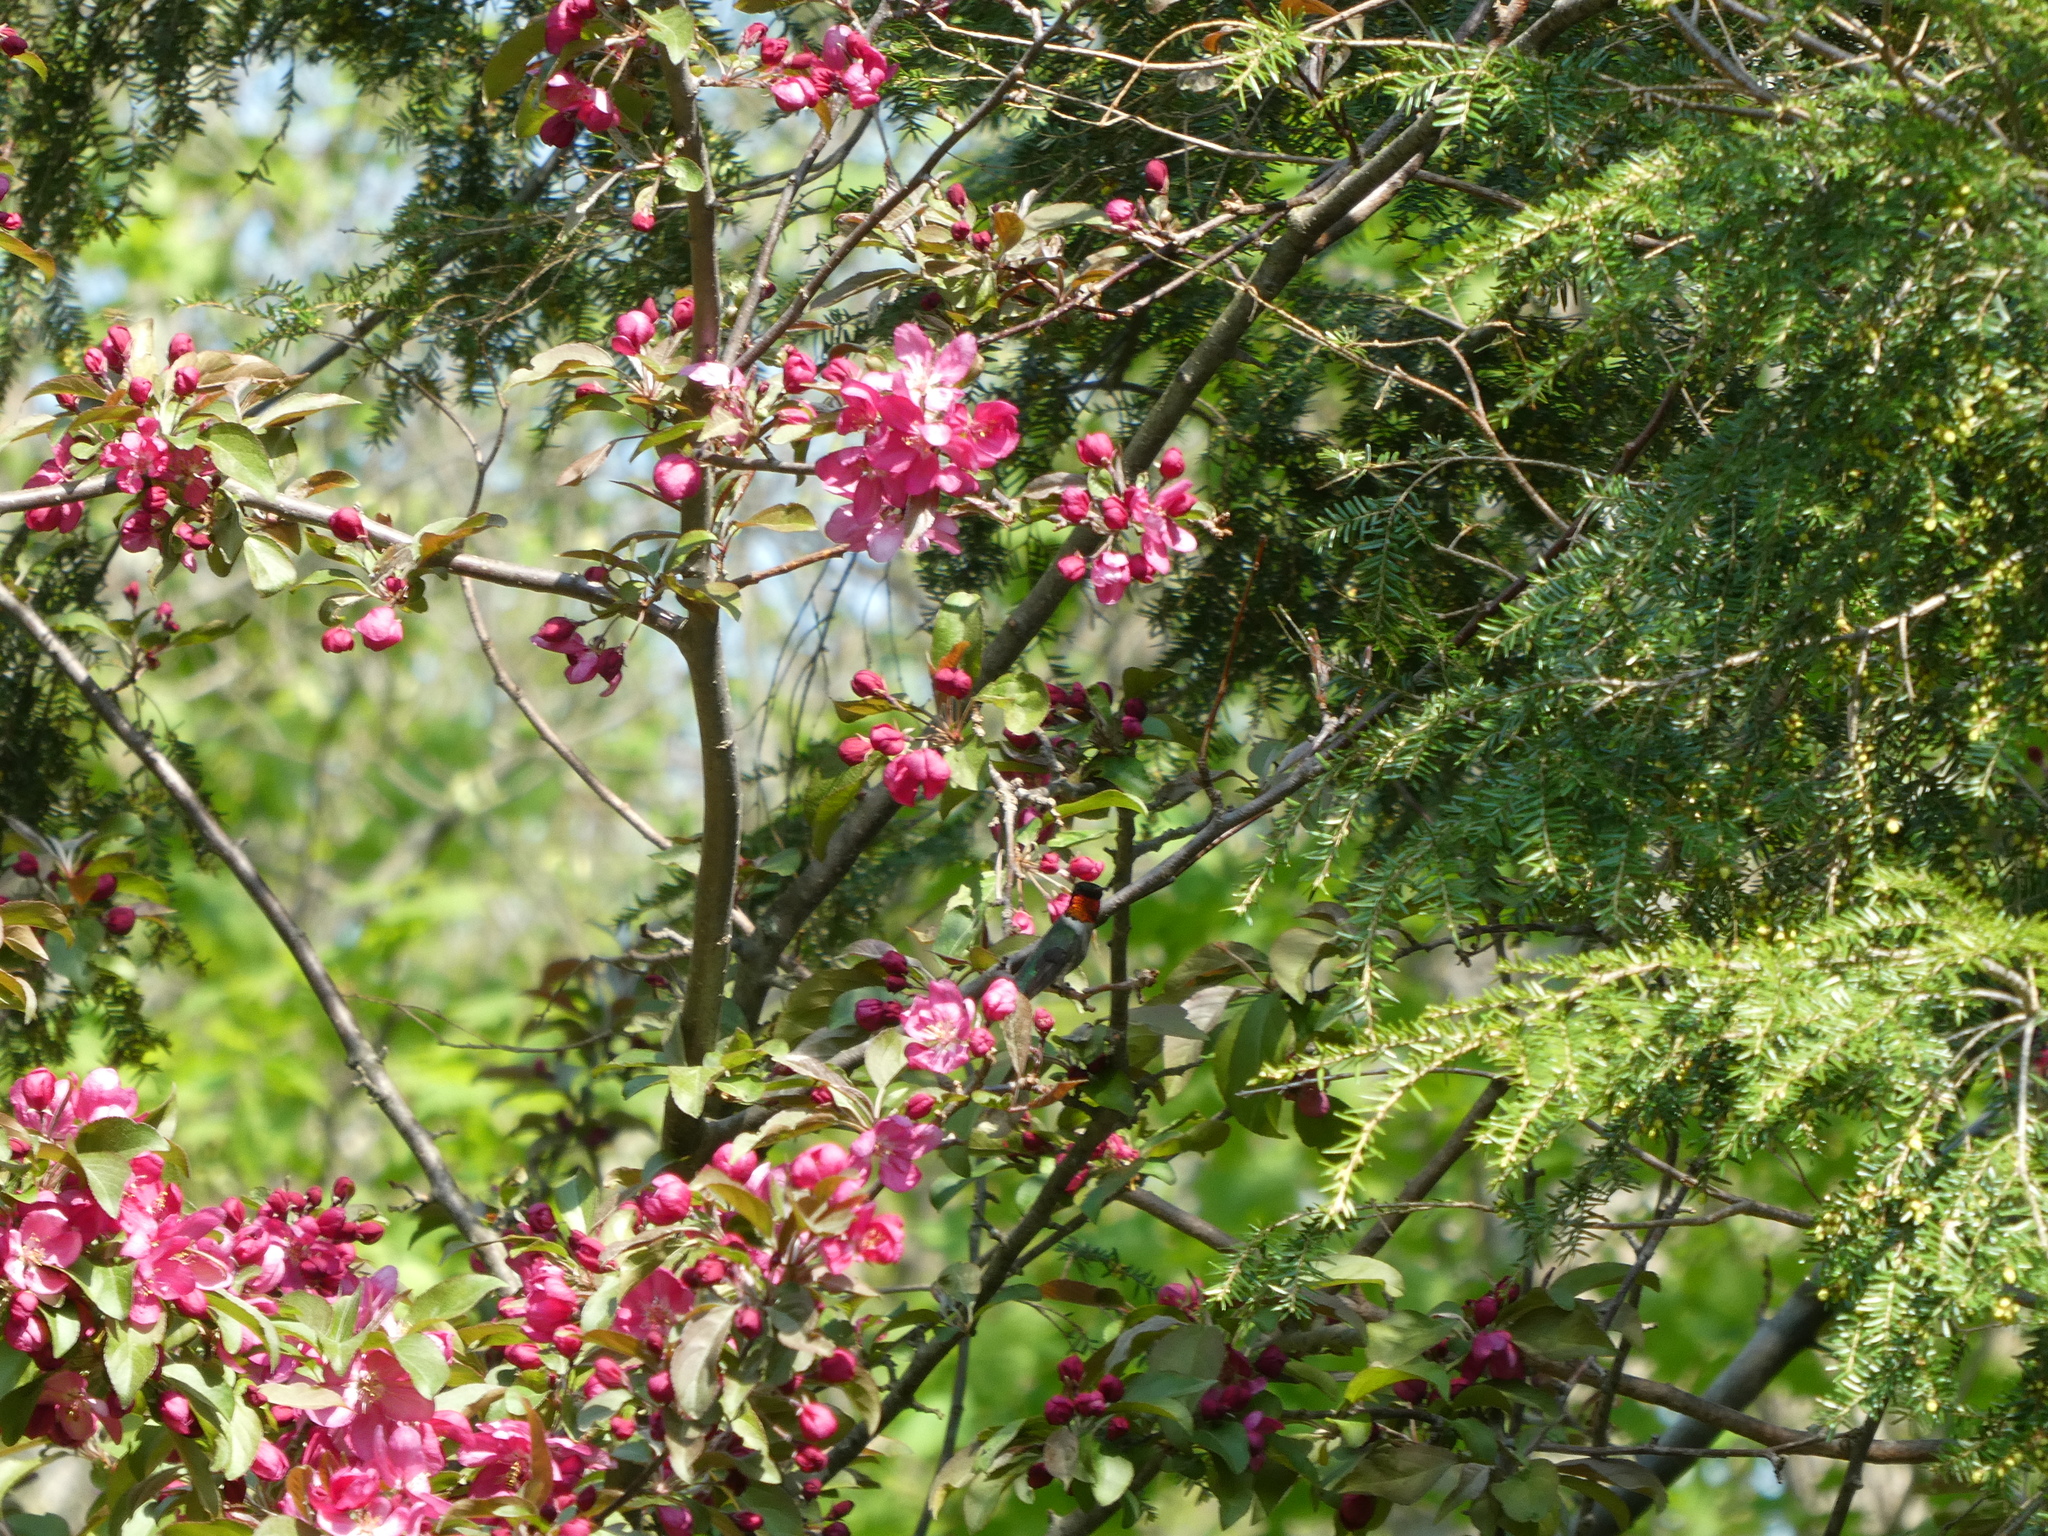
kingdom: Animalia
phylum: Chordata
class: Aves
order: Apodiformes
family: Trochilidae
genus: Archilochus
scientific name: Archilochus colubris
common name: Ruby-throated hummingbird
